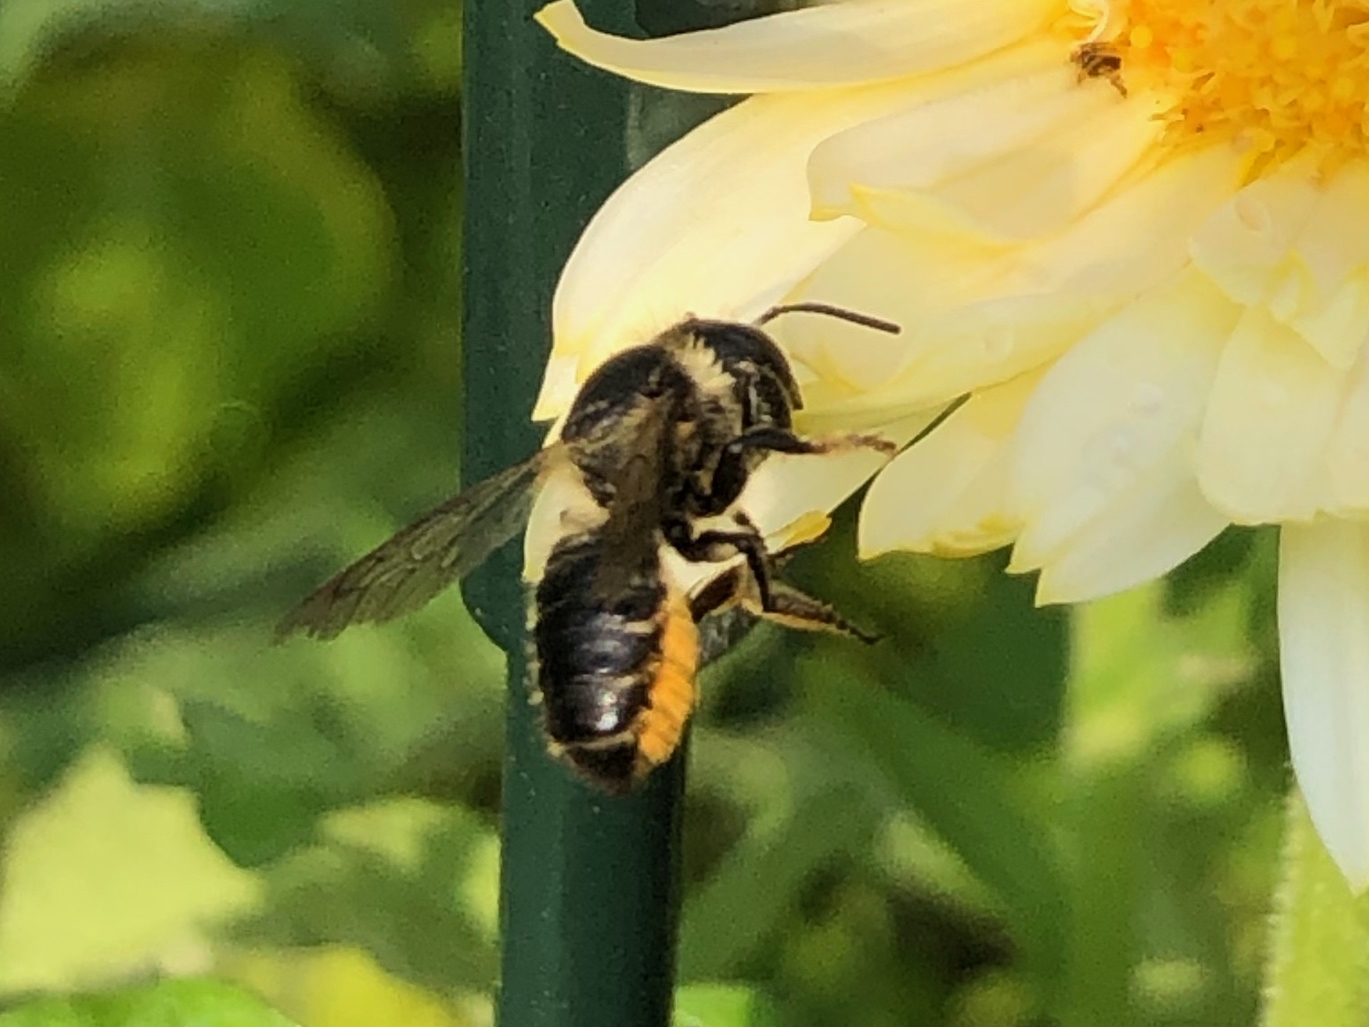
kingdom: Animalia
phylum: Arthropoda
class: Insecta
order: Hymenoptera
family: Megachilidae
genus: Megachile
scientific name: Megachile
